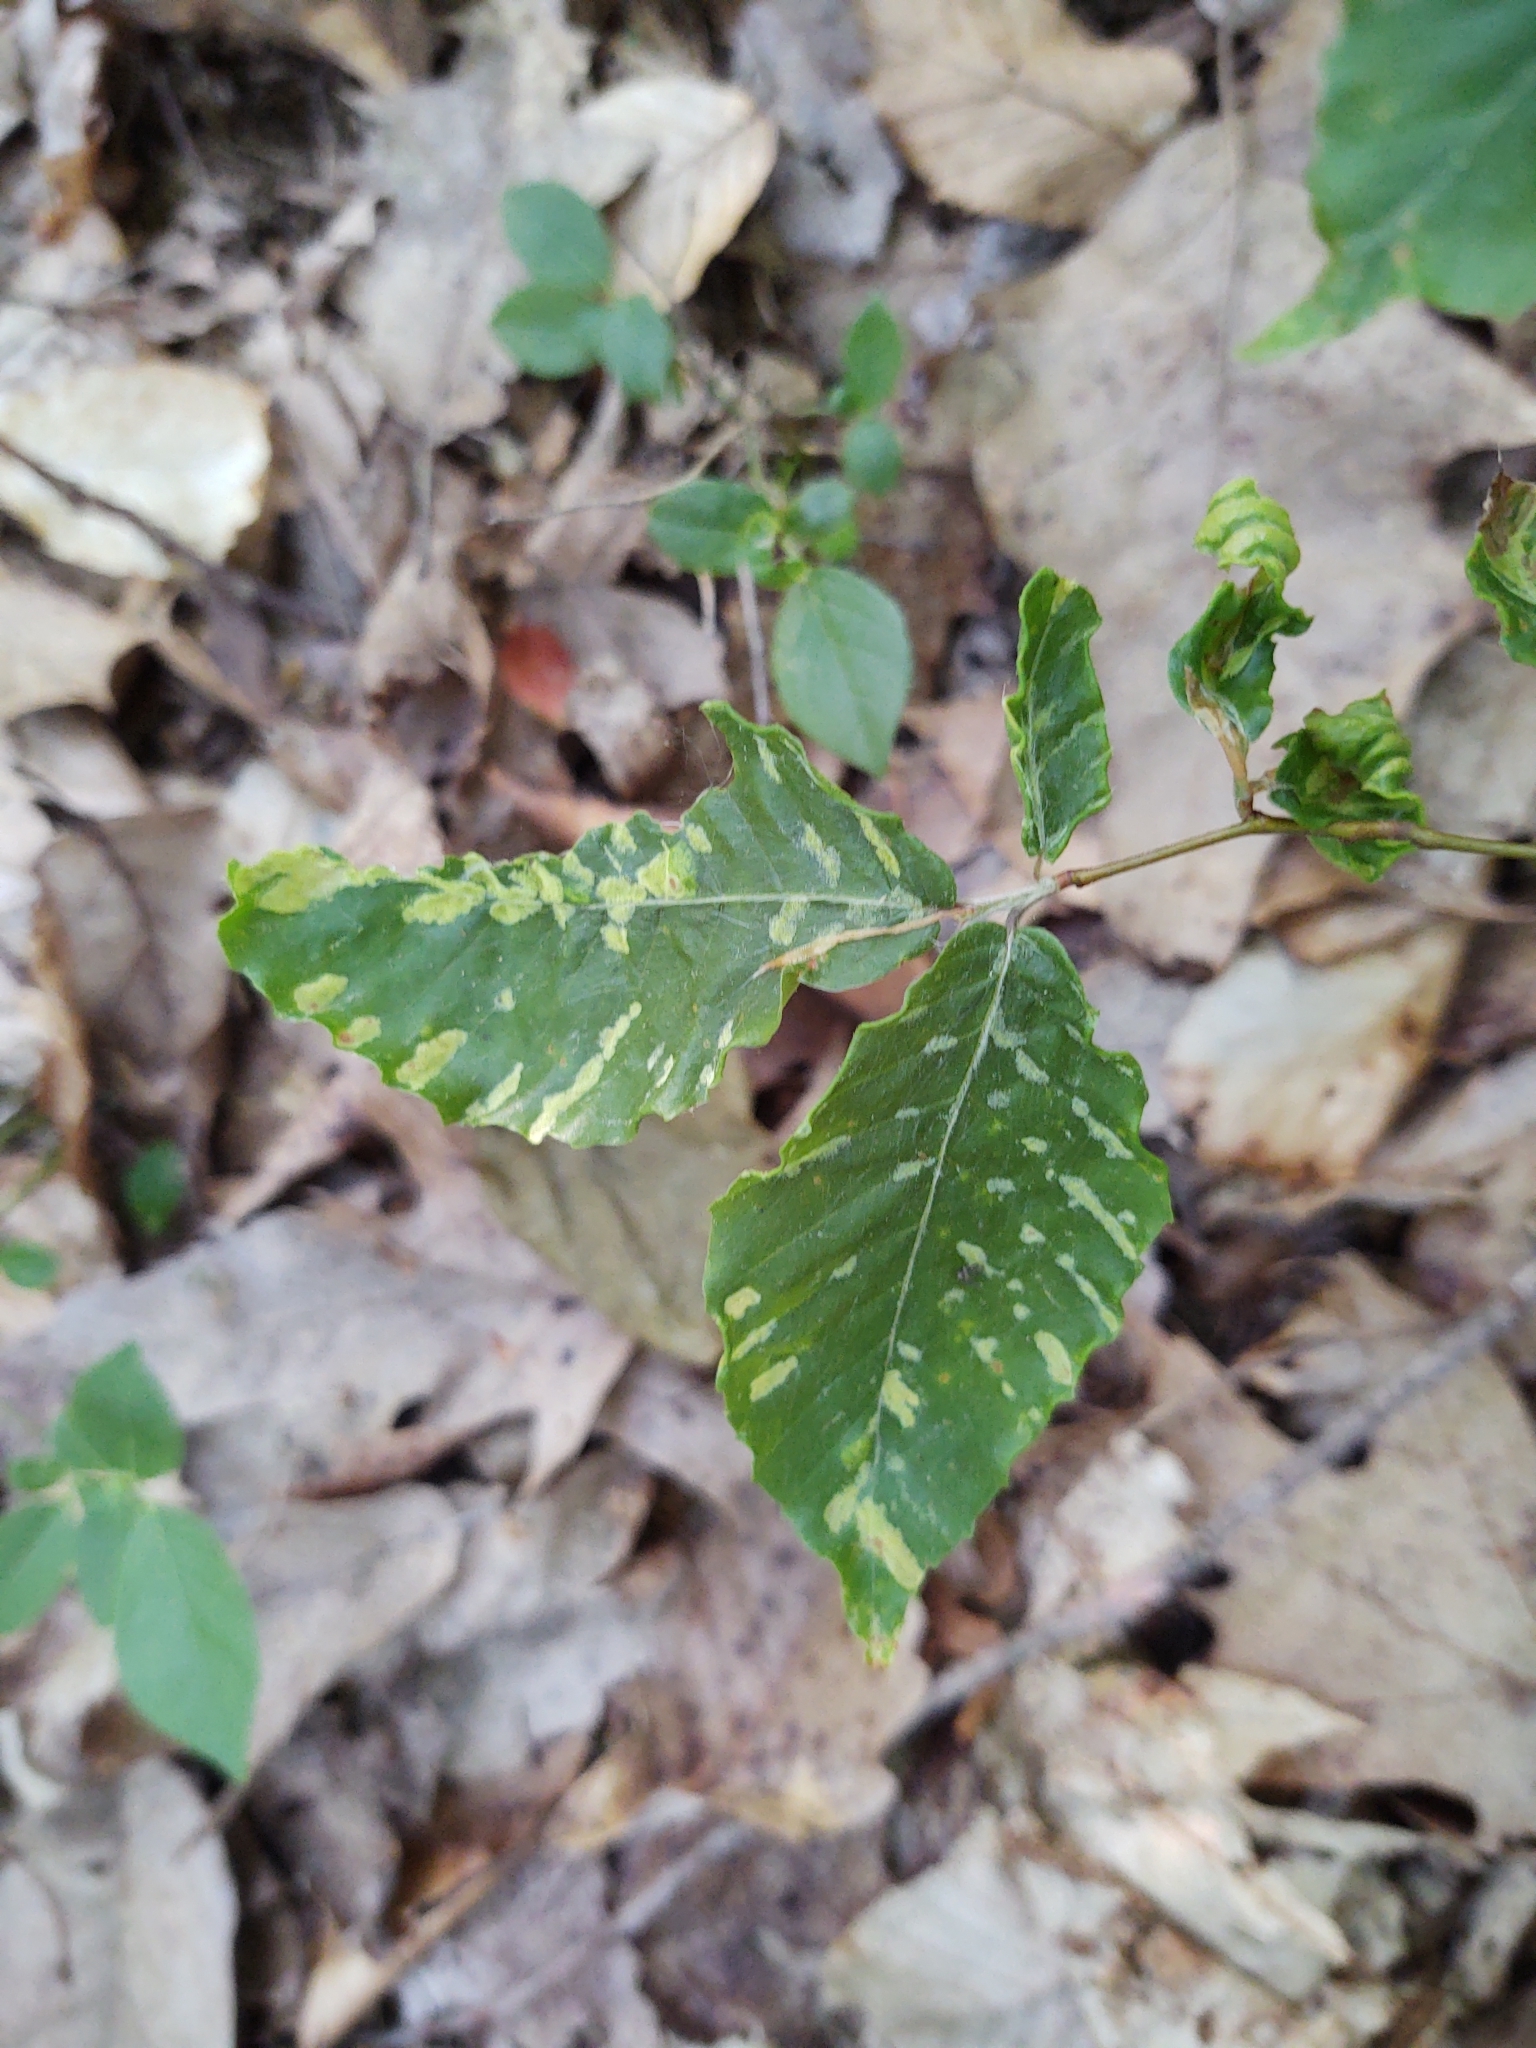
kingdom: Animalia
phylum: Arthropoda
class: Arachnida
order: Trombidiformes
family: Eriophyidae
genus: Acalitus
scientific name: Acalitus
